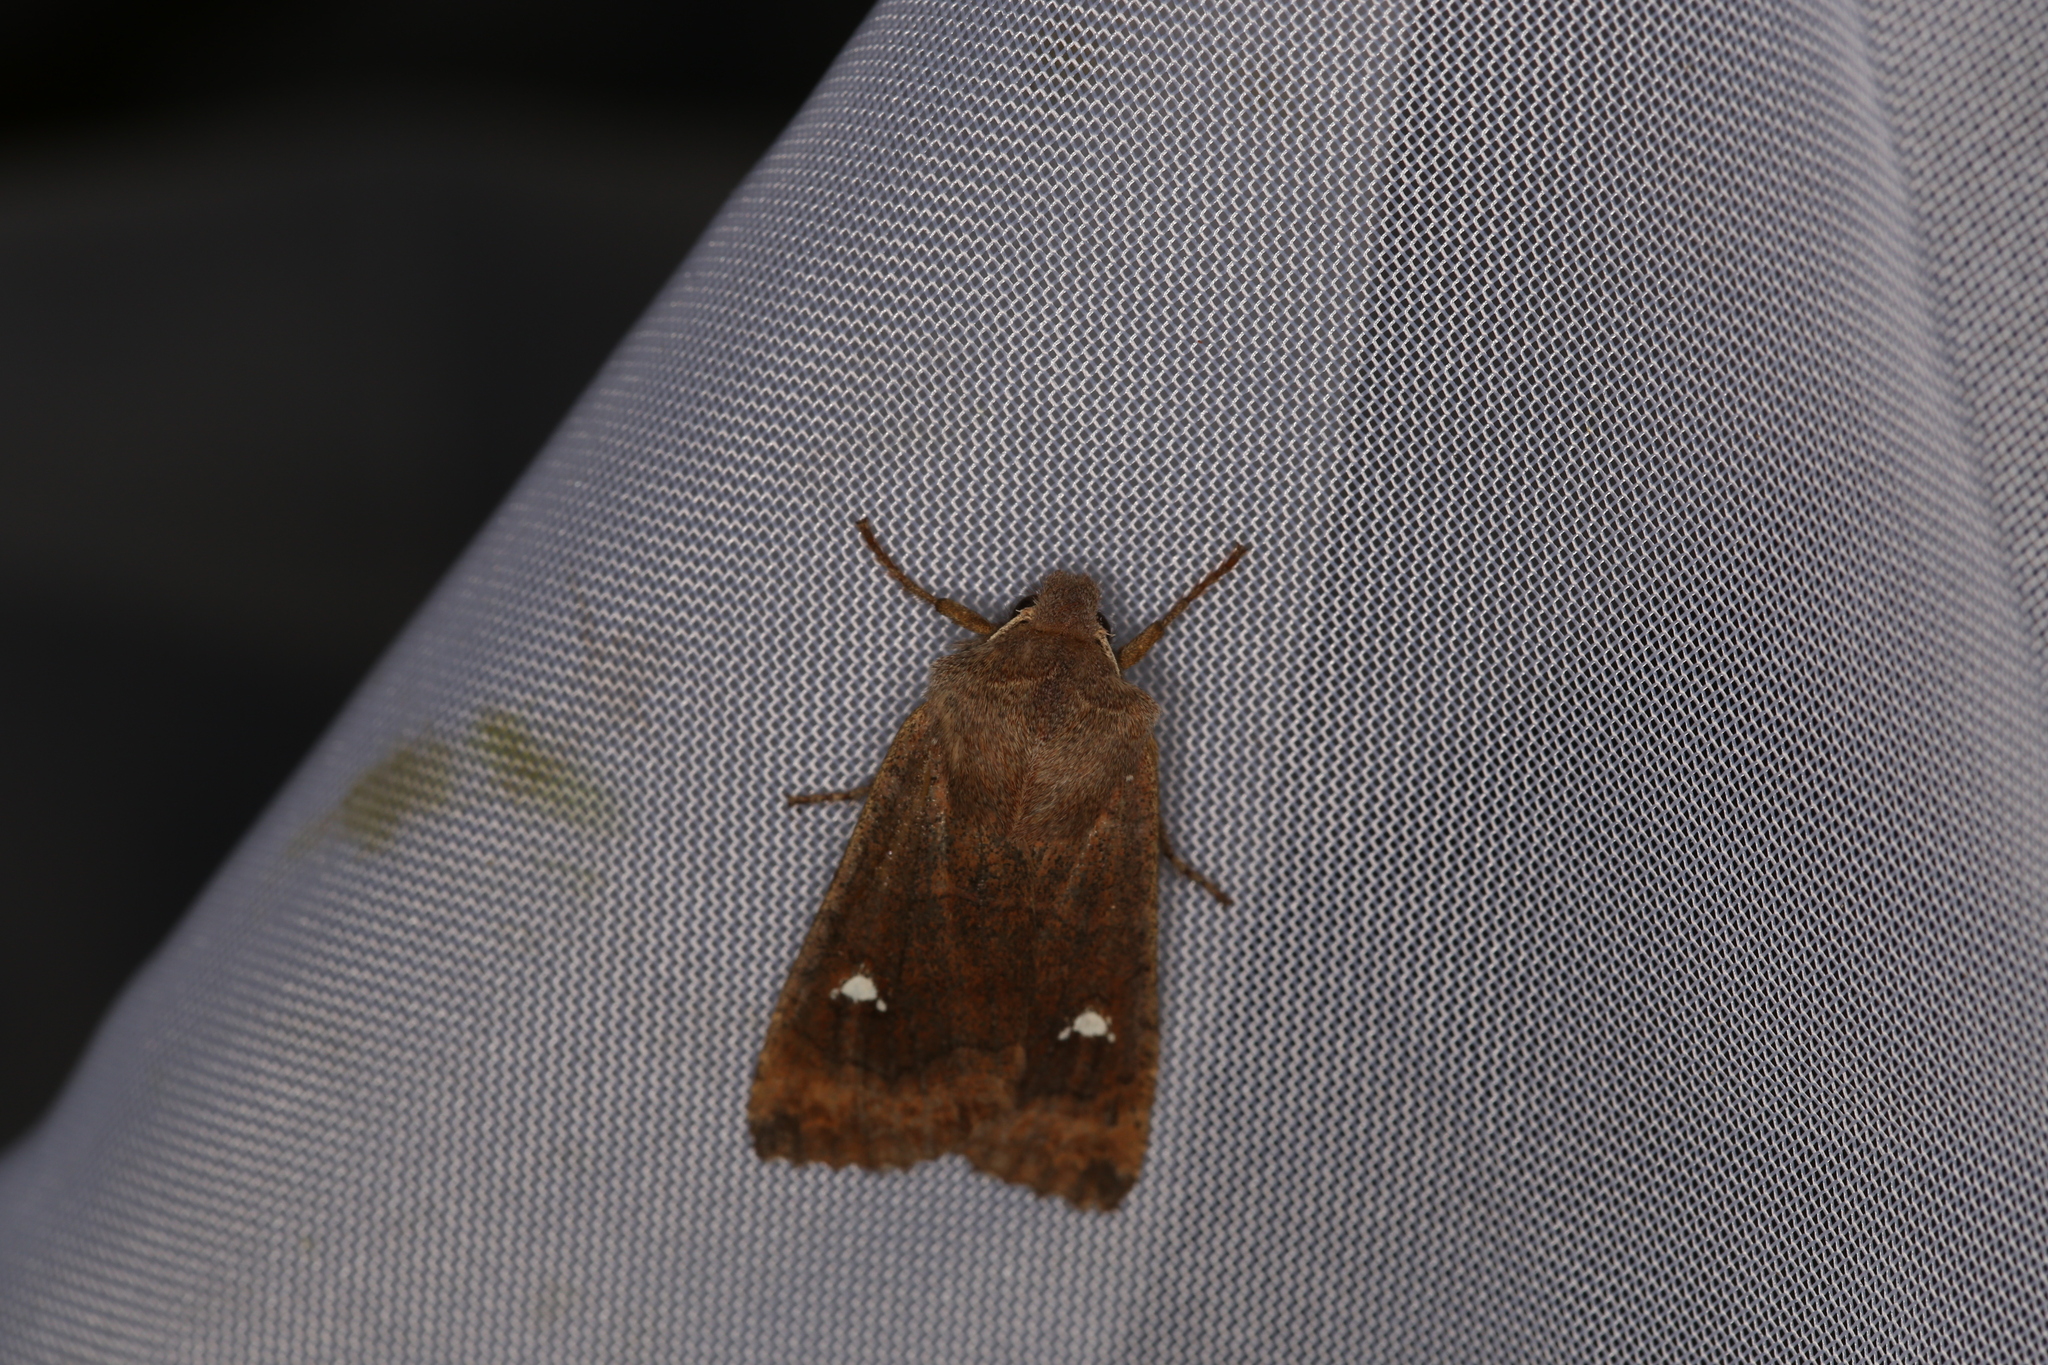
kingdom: Animalia
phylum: Arthropoda
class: Insecta
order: Lepidoptera
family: Noctuidae
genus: Eupsilia
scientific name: Eupsilia transversa
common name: Satellite
